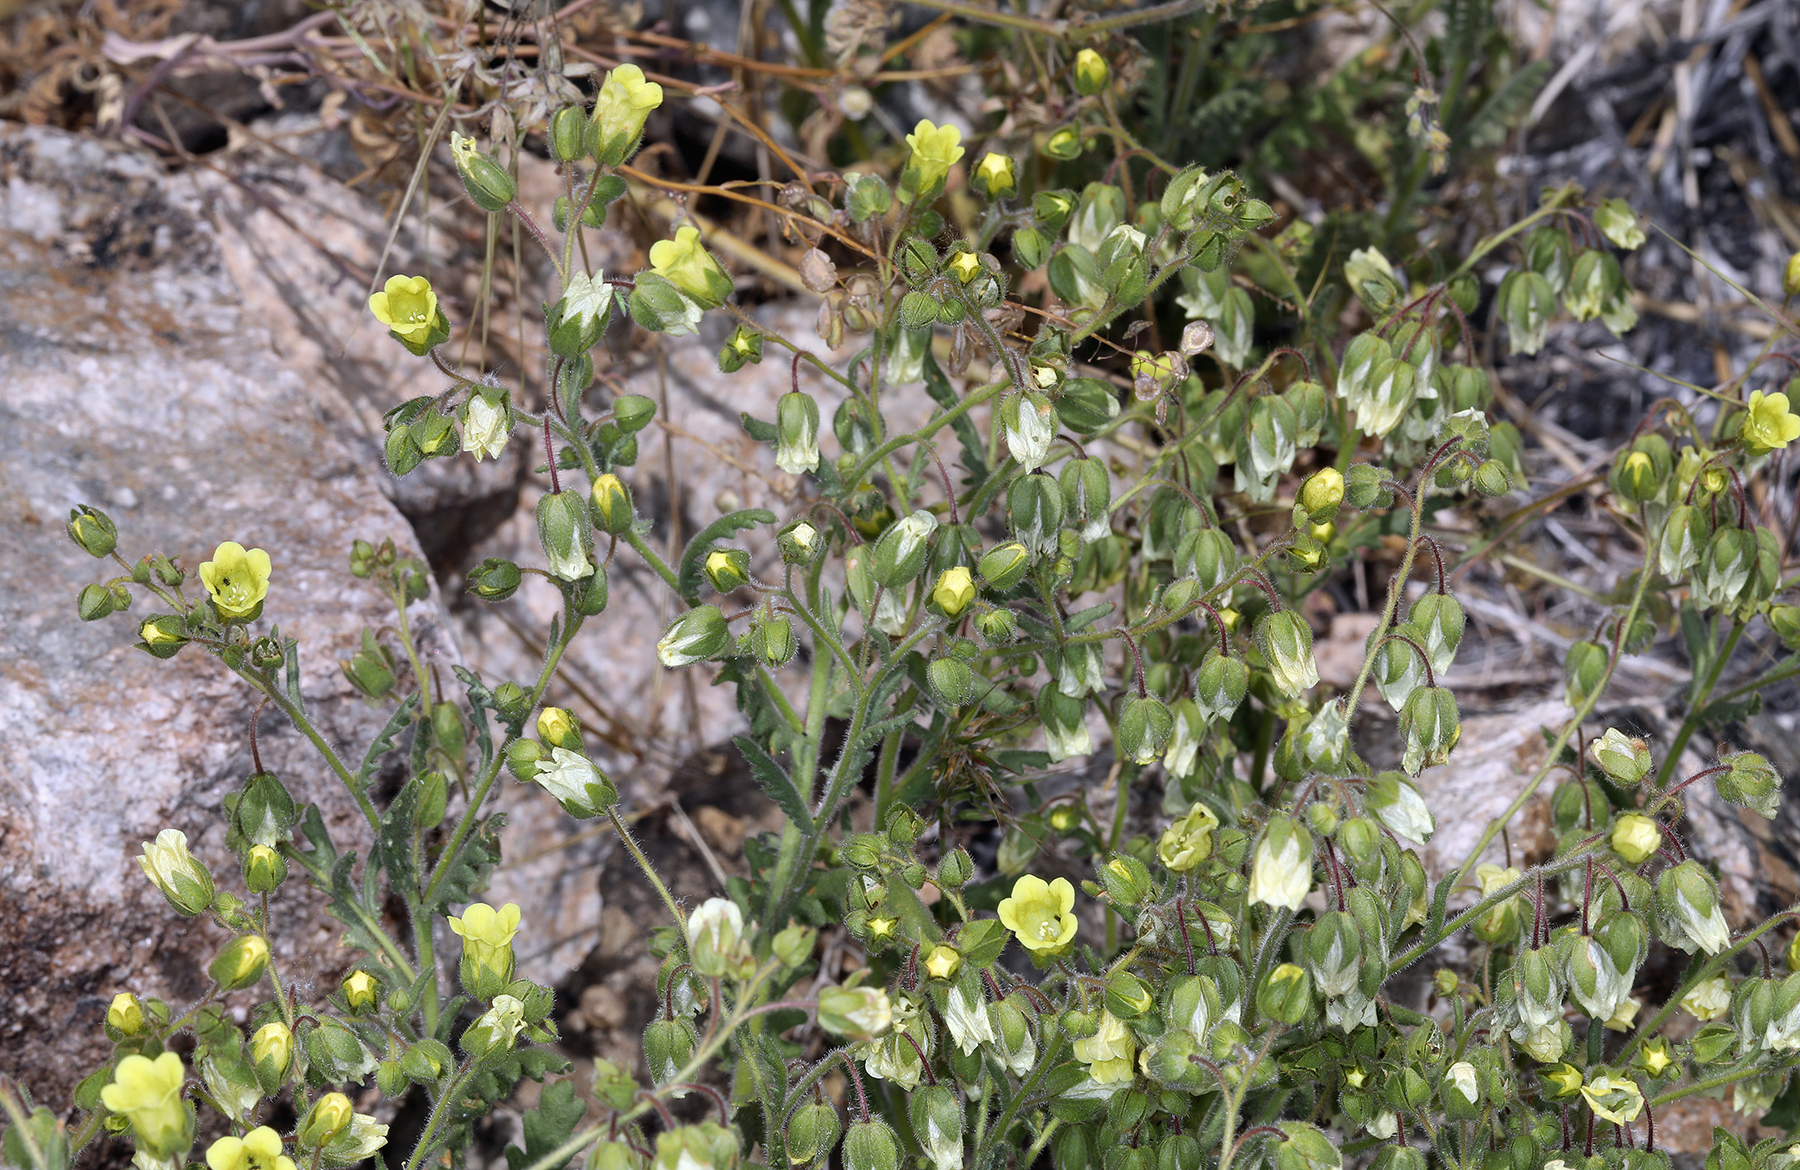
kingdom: Plantae
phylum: Tracheophyta
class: Magnoliopsida
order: Boraginales
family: Hydrophyllaceae
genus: Emmenanthe
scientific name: Emmenanthe penduliflora
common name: Whispering-bells
